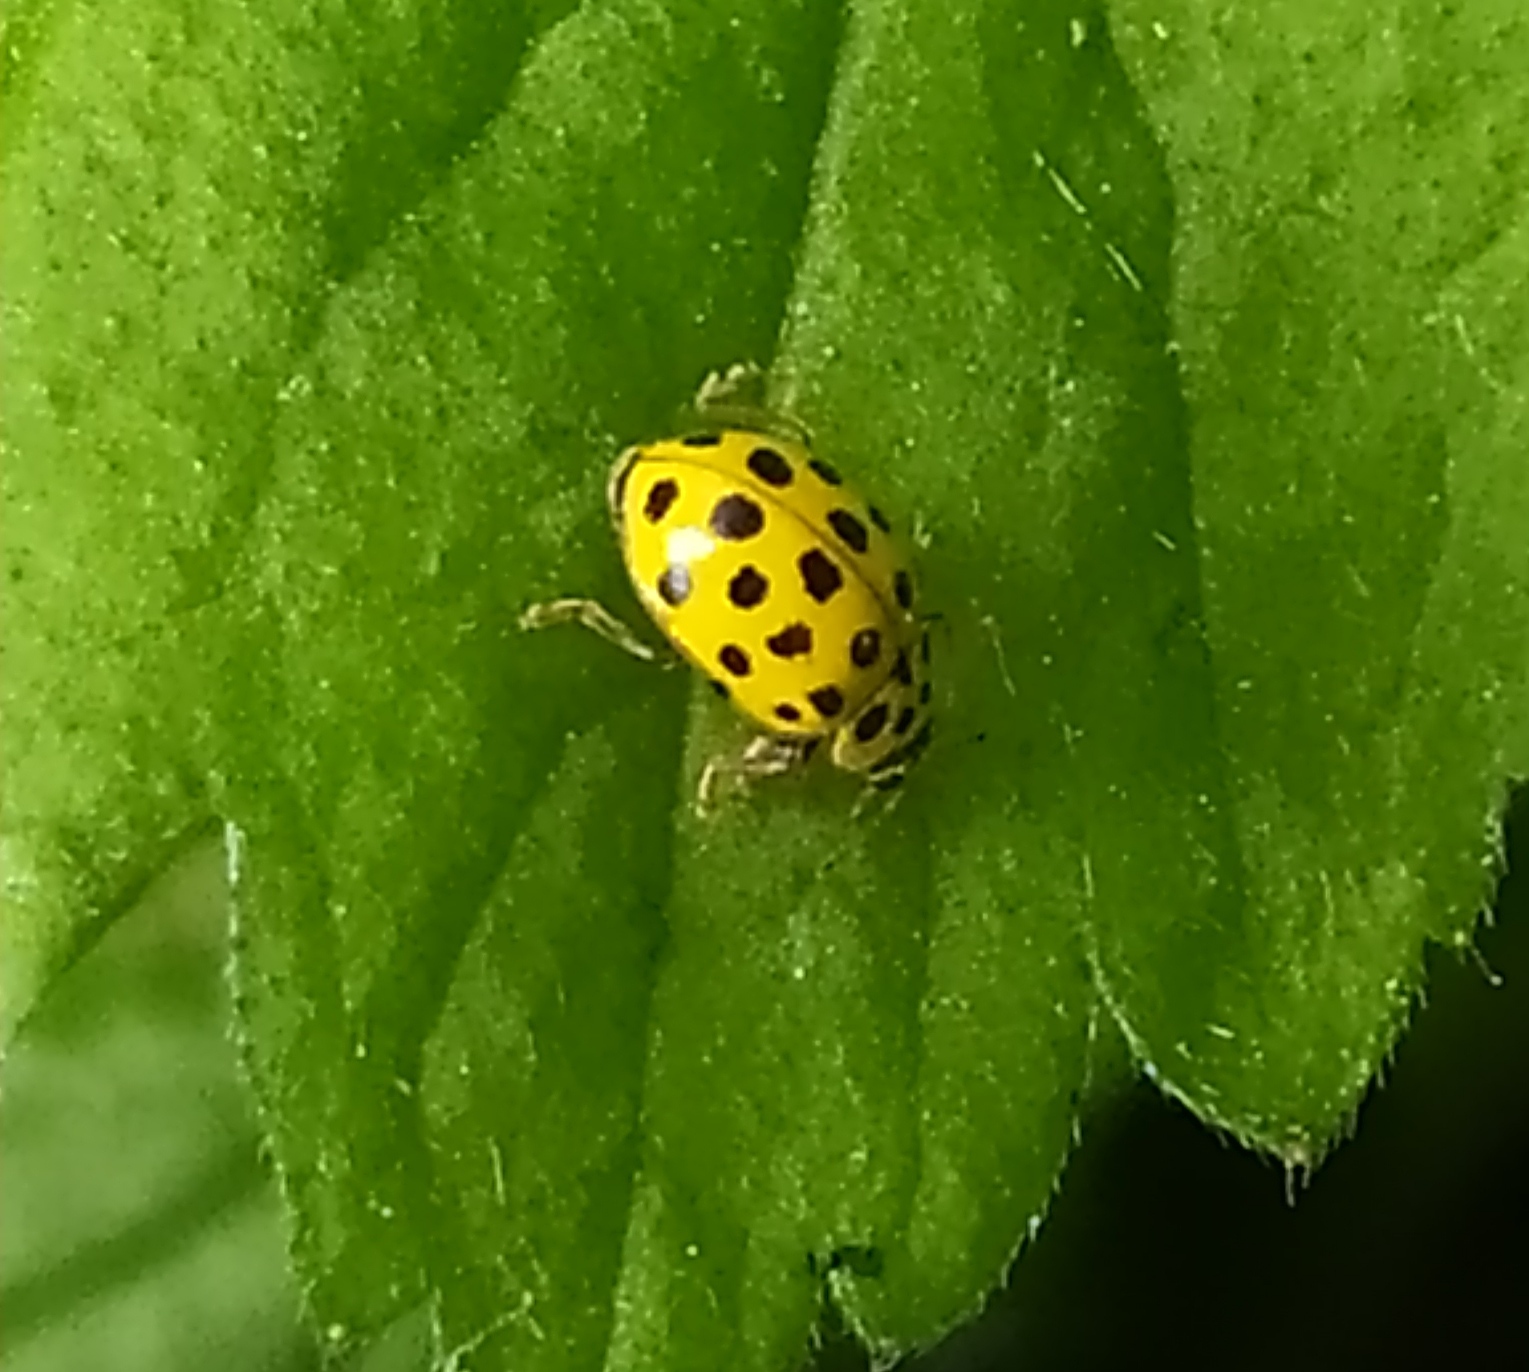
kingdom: Animalia
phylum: Arthropoda
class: Insecta
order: Coleoptera
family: Coccinellidae
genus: Psyllobora
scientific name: Psyllobora vigintiduopunctata
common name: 22-spot ladybird
